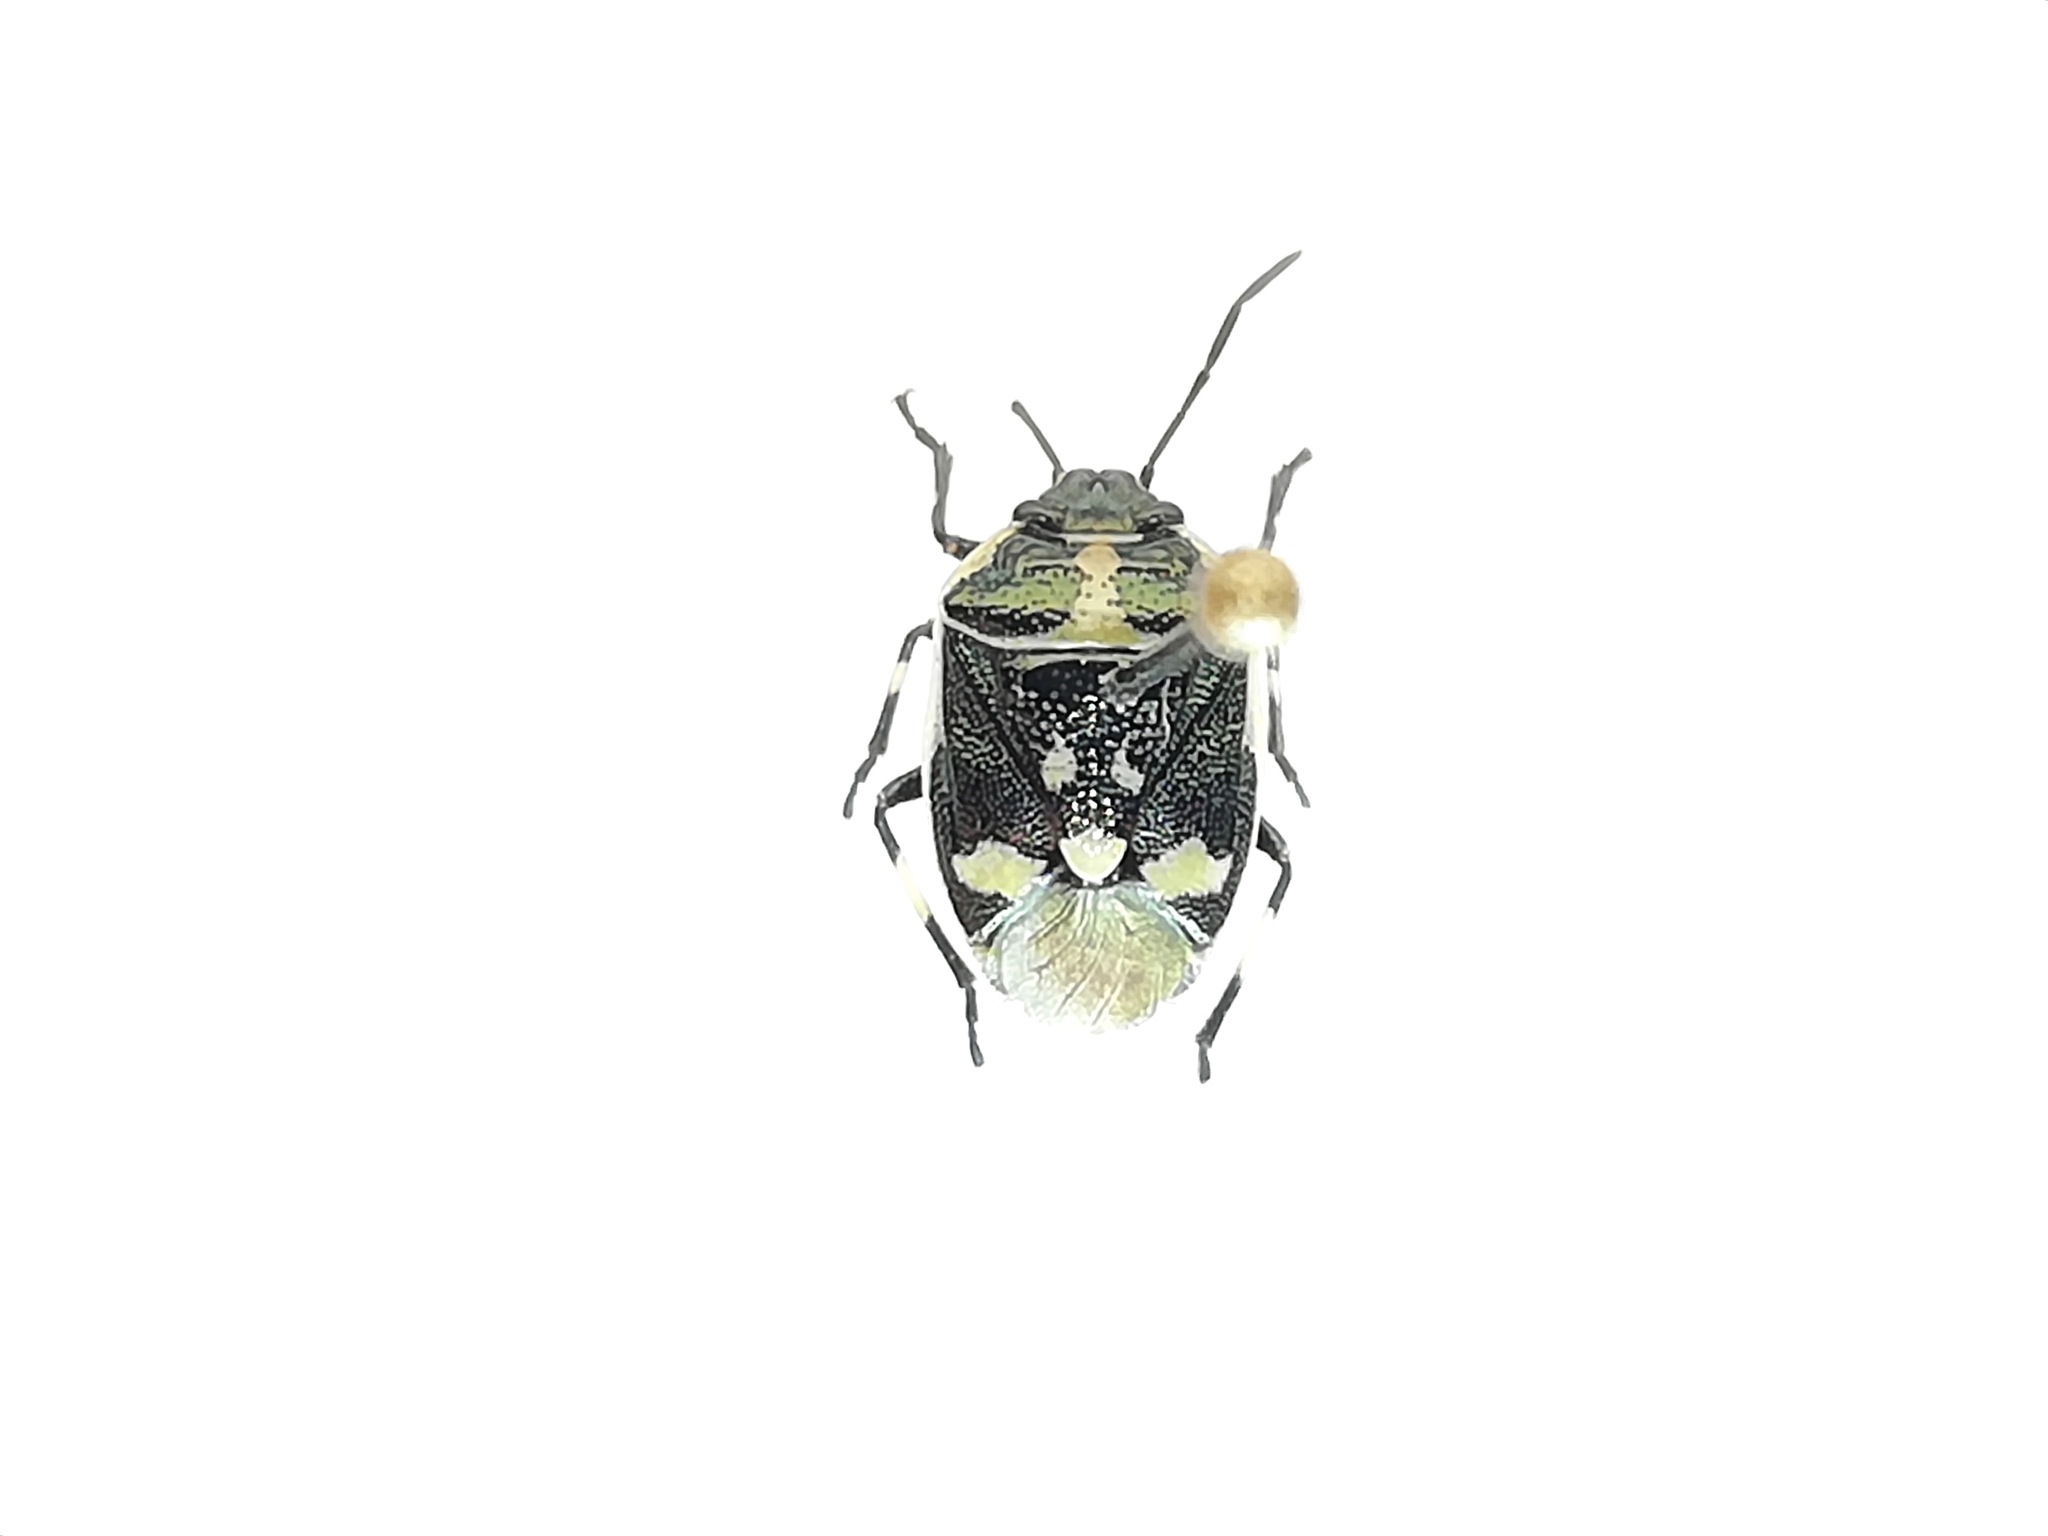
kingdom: Animalia
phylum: Arthropoda
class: Insecta
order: Hemiptera
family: Pentatomidae
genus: Eurydema
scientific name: Eurydema oleracea
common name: Cabbage bug
